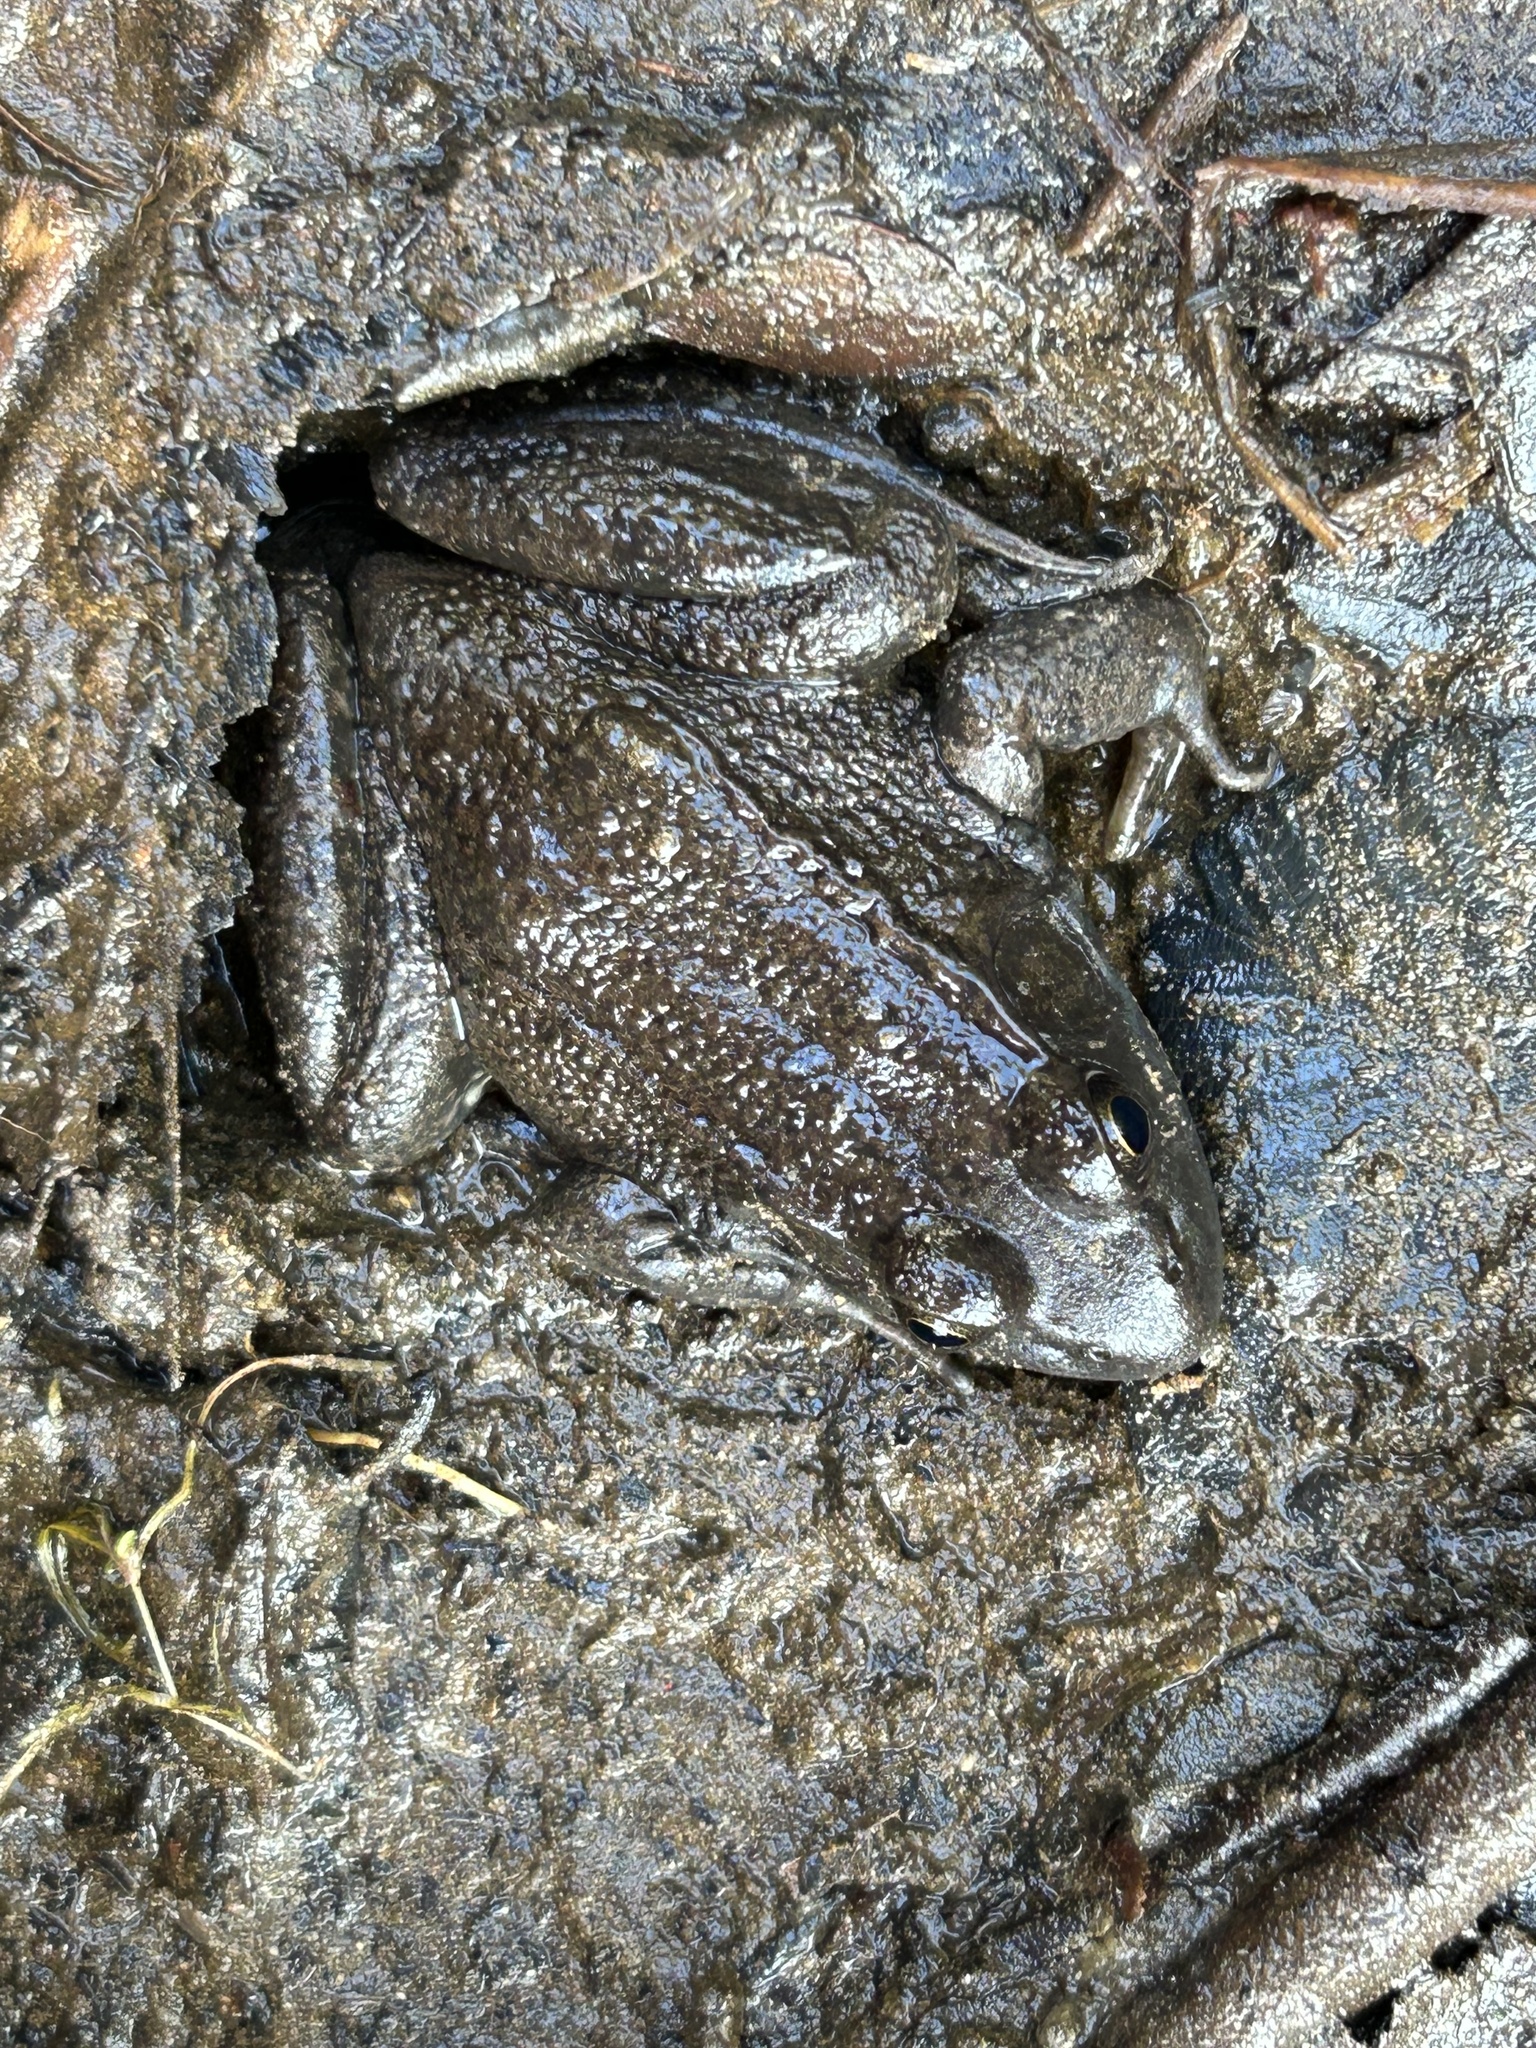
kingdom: Animalia
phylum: Chordata
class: Amphibia
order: Anura
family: Ranidae
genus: Lithobates
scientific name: Lithobates clamitans
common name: Green frog
